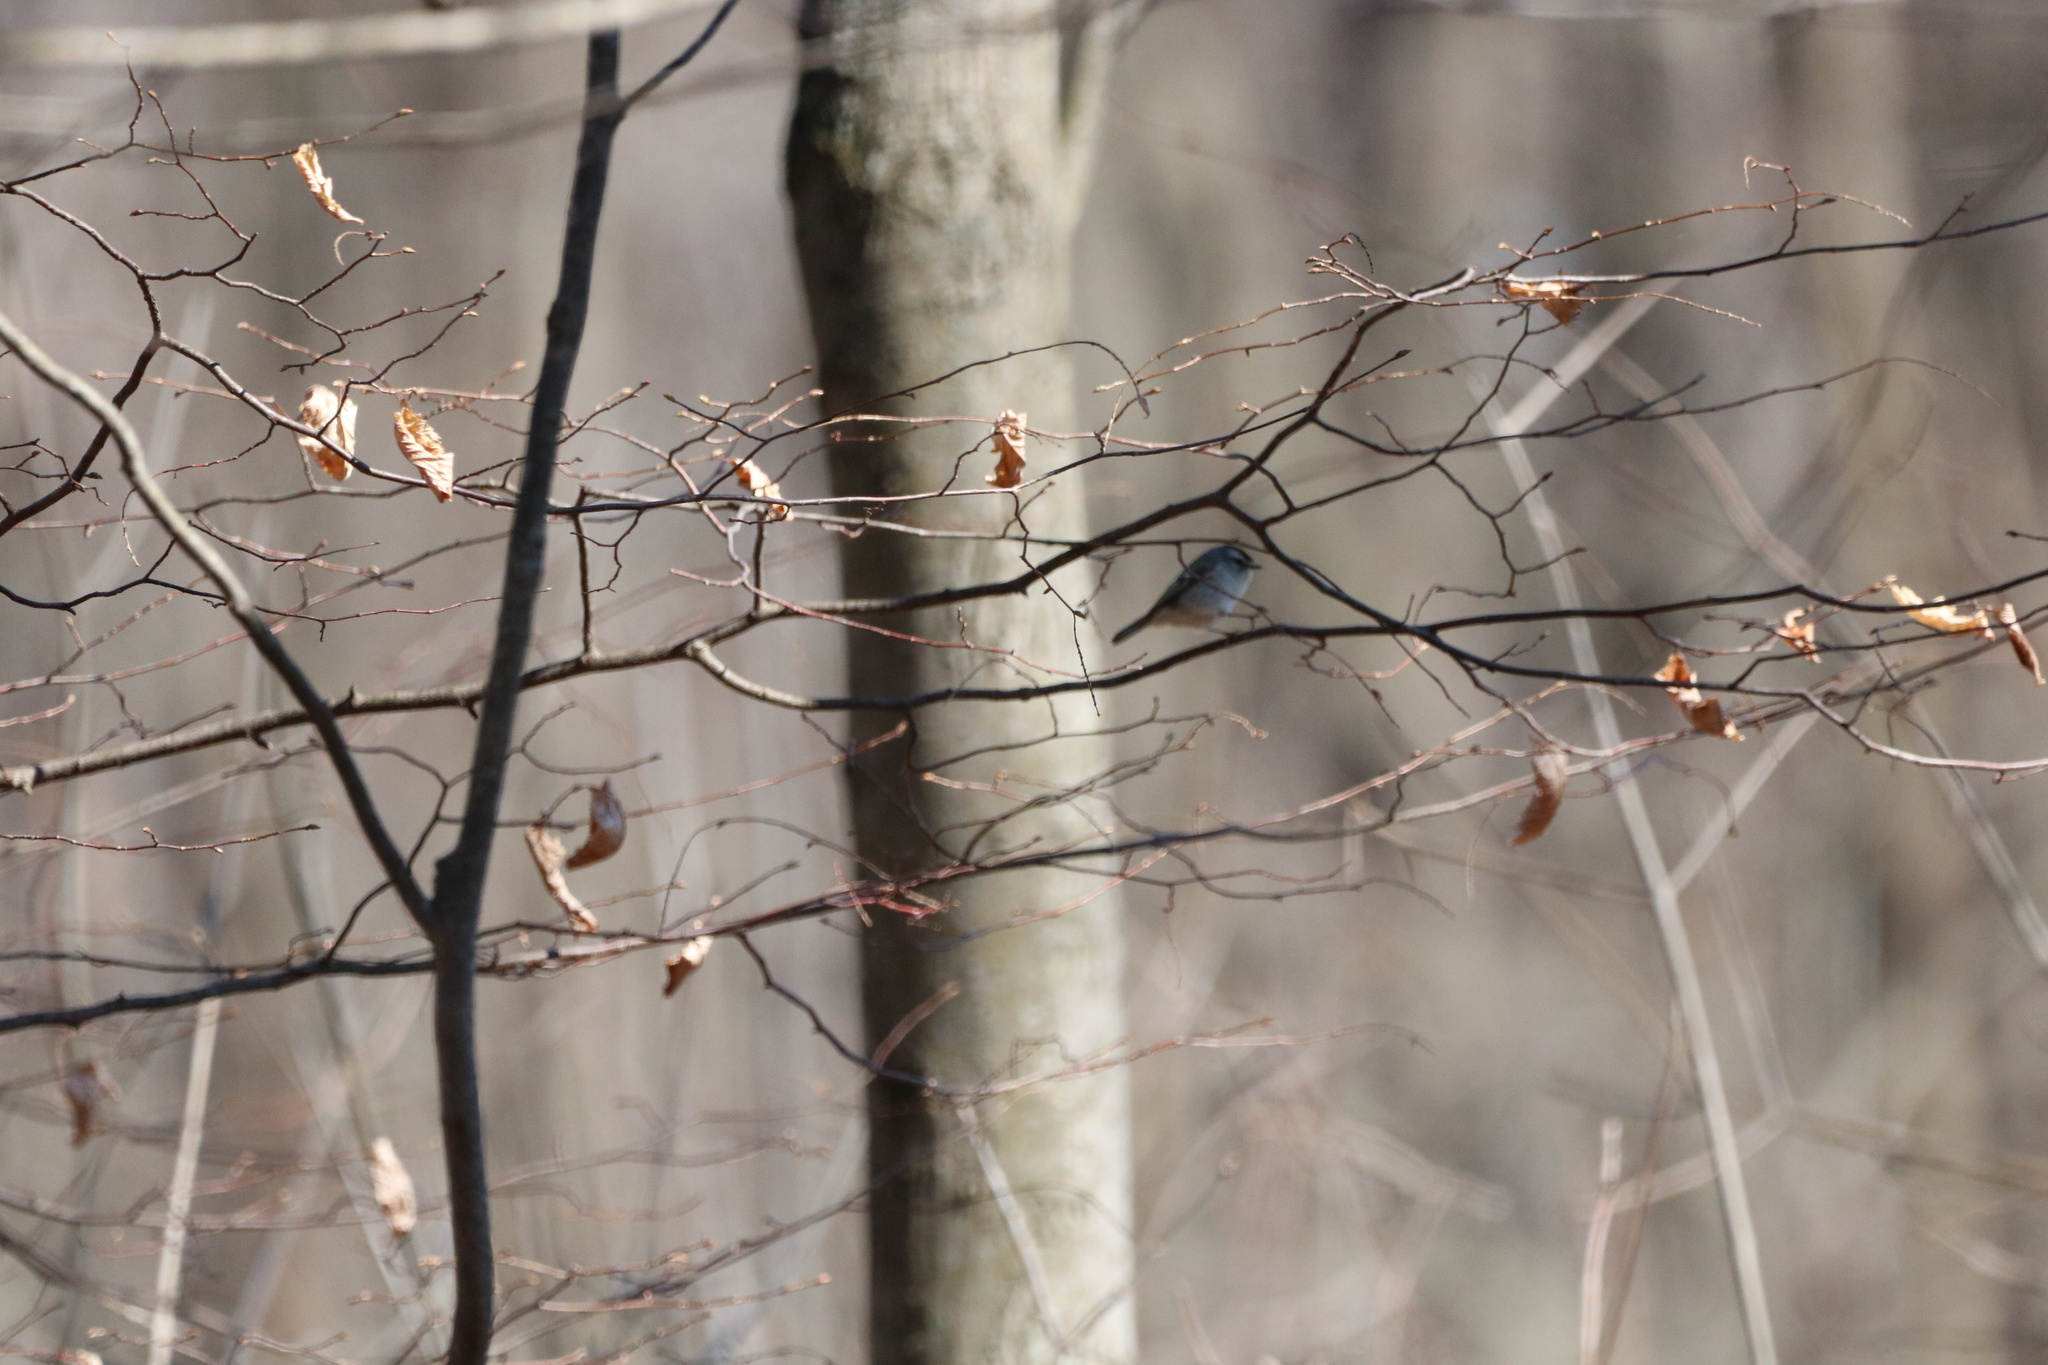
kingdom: Animalia
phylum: Chordata
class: Aves
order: Passeriformes
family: Regulidae
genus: Regulus
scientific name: Regulus satrapa
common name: Golden-crowned kinglet
